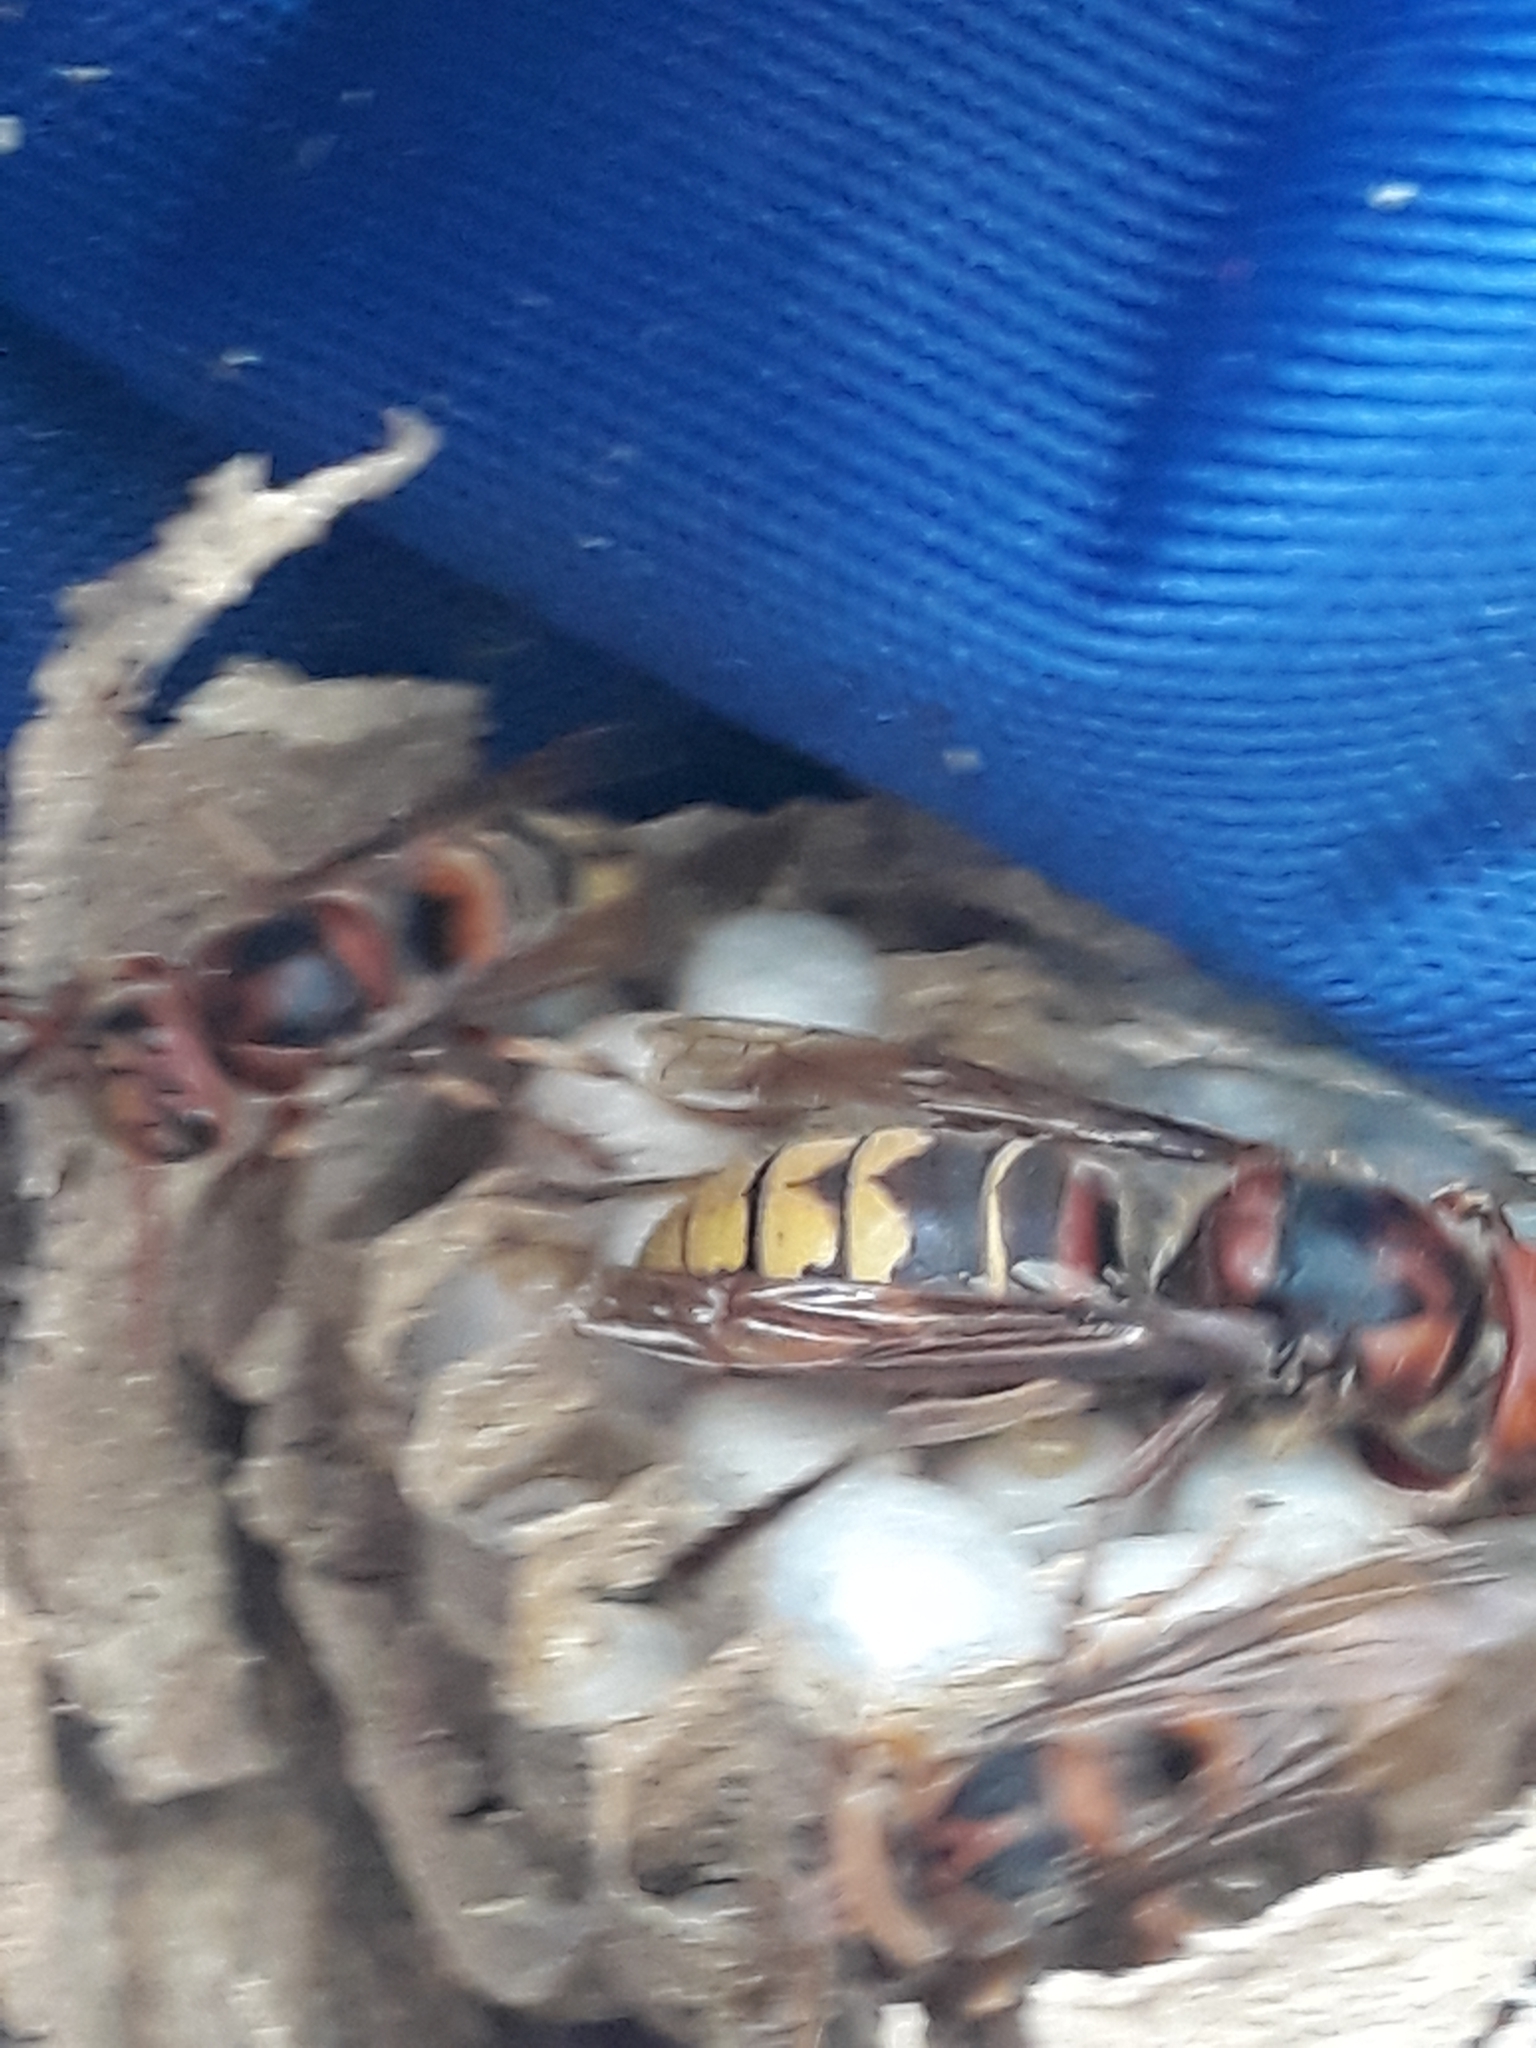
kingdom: Animalia
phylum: Arthropoda
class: Insecta
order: Hymenoptera
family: Vespidae
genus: Vespa
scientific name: Vespa crabro
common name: Hornet
